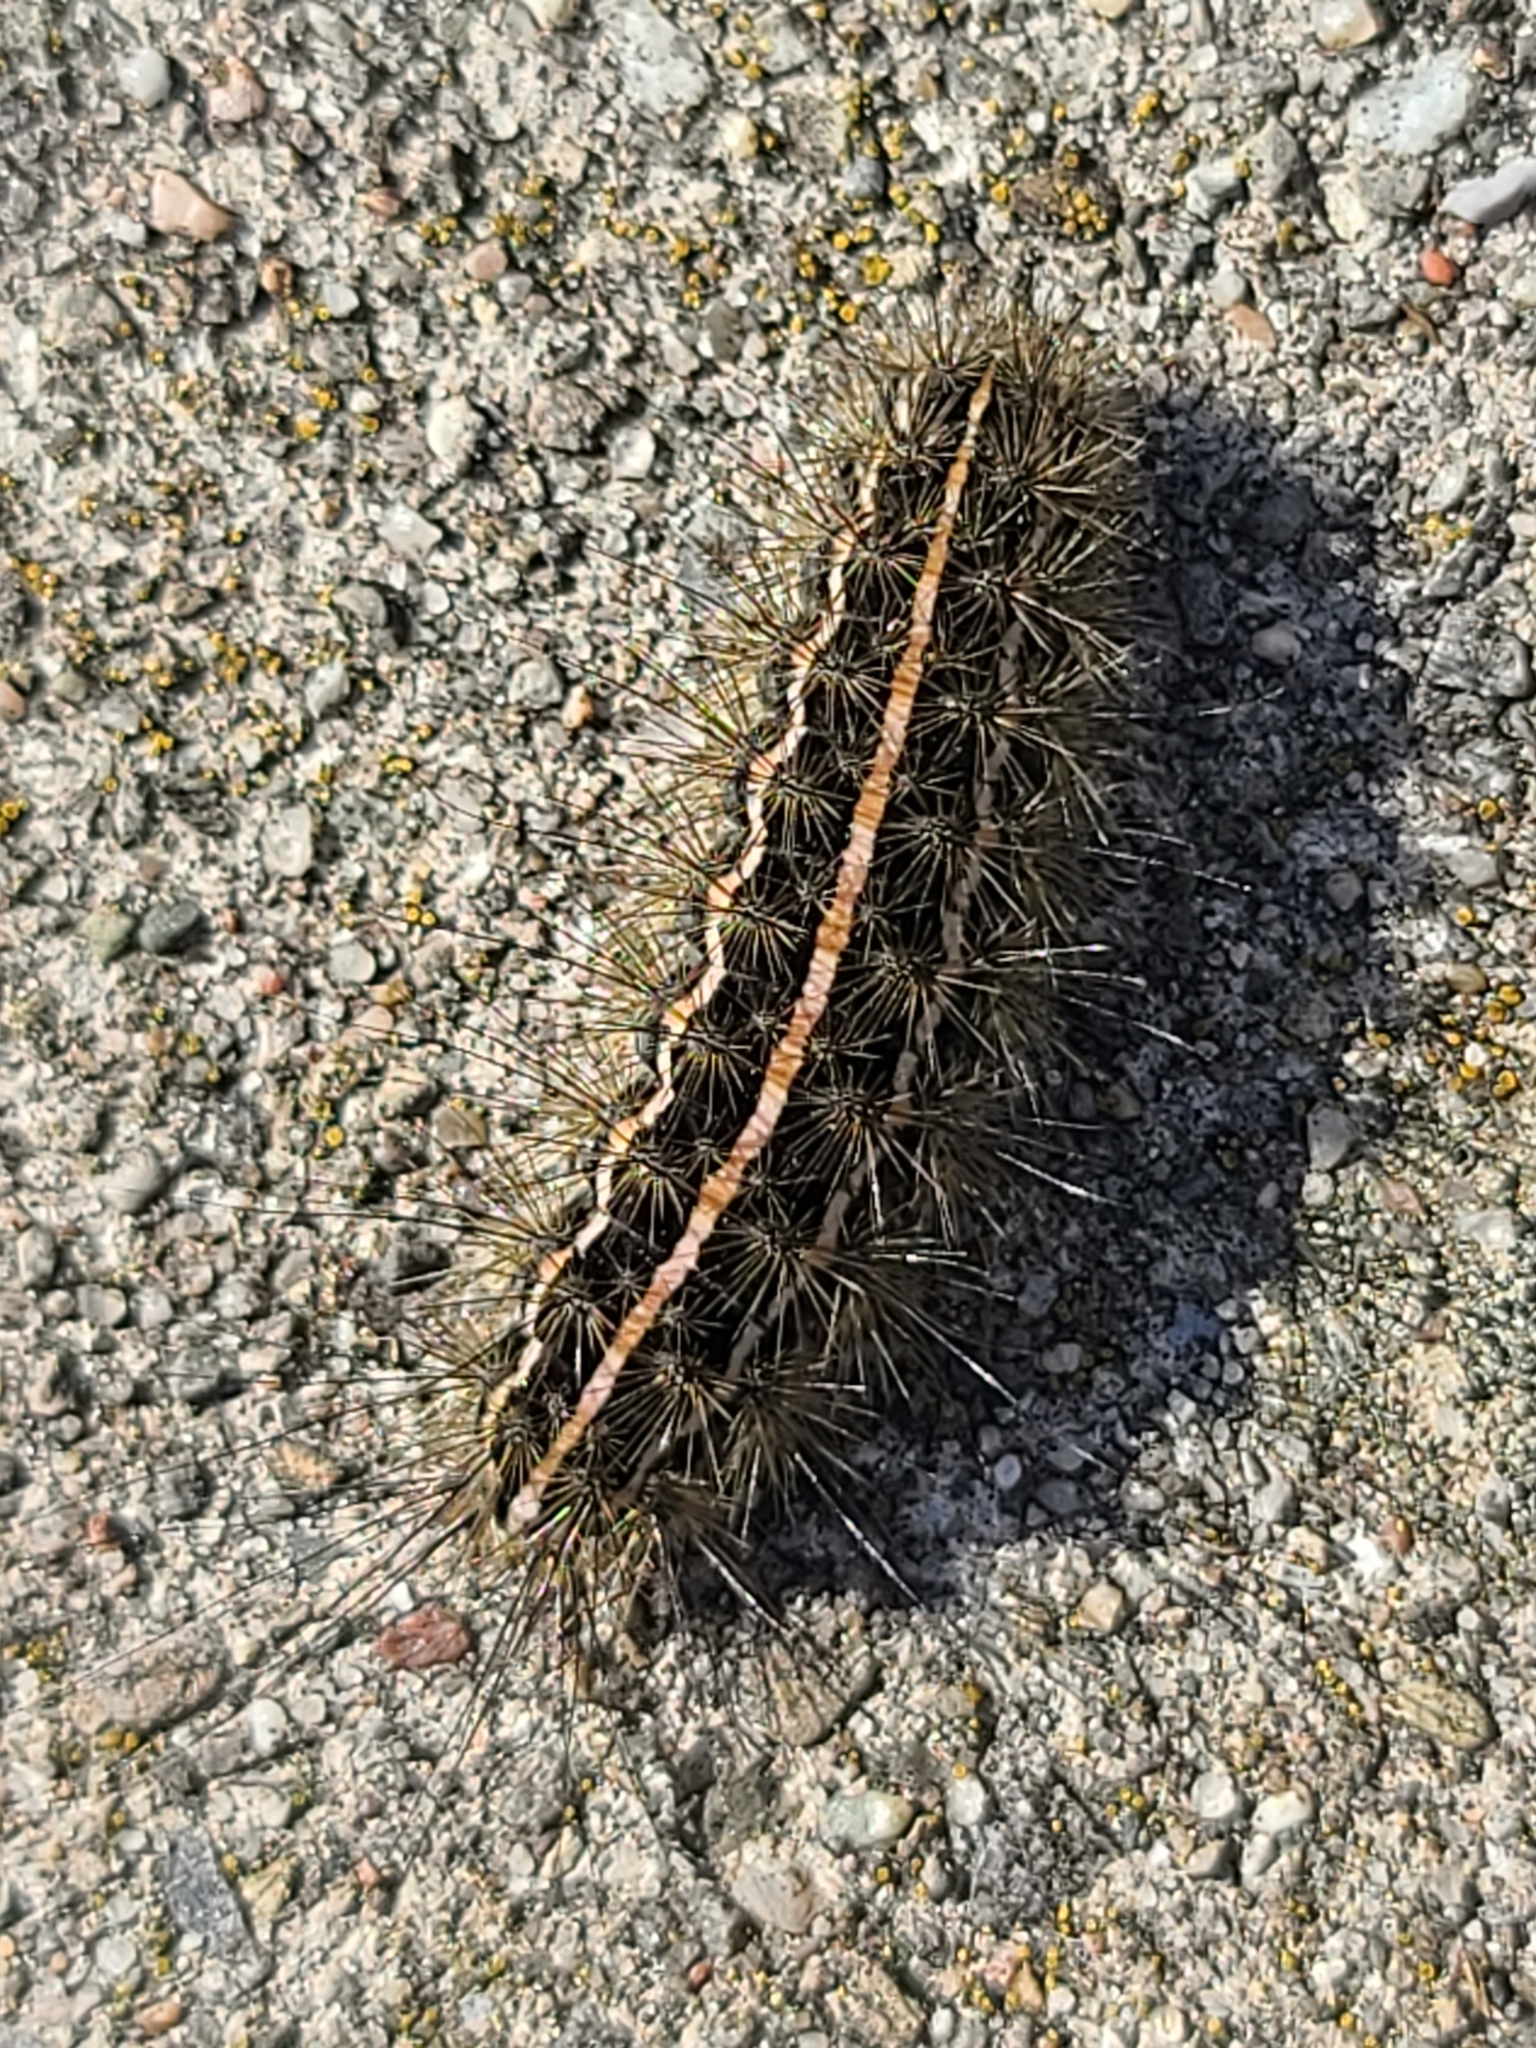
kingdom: Animalia
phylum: Arthropoda
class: Insecta
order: Lepidoptera
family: Erebidae
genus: Apantesis
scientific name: Apantesis arge
